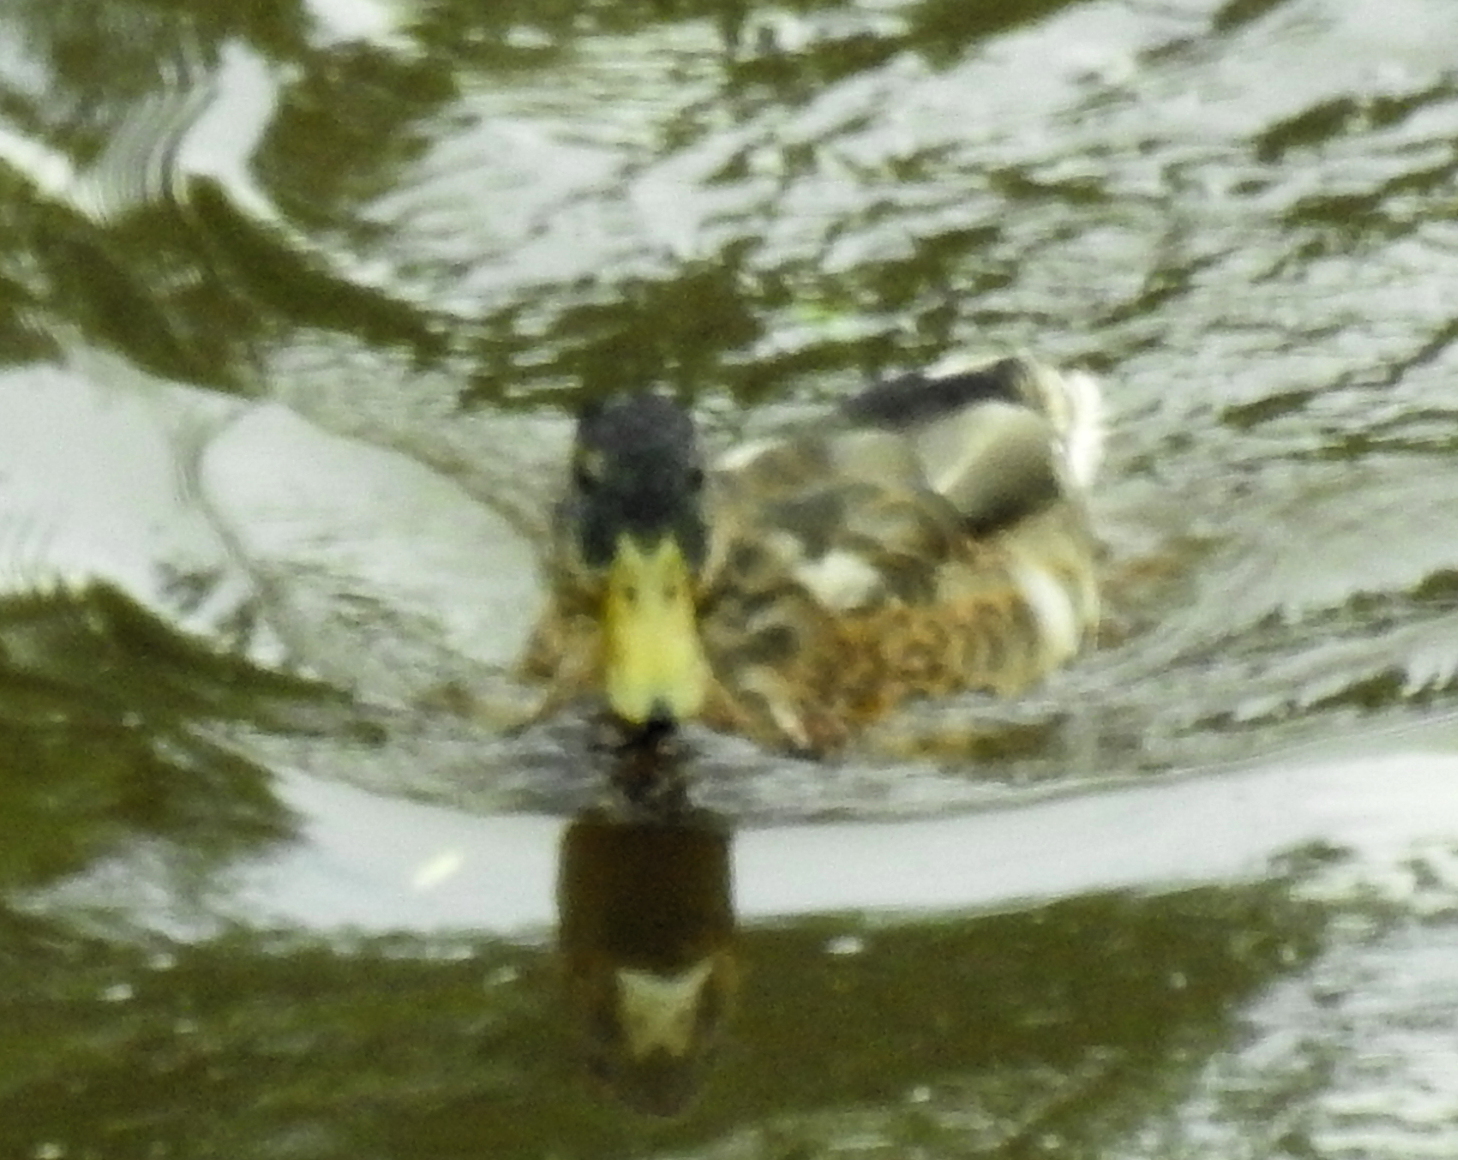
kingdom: Animalia
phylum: Chordata
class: Aves
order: Anseriformes
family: Anatidae
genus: Anas
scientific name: Anas platyrhynchos
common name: Mallard
